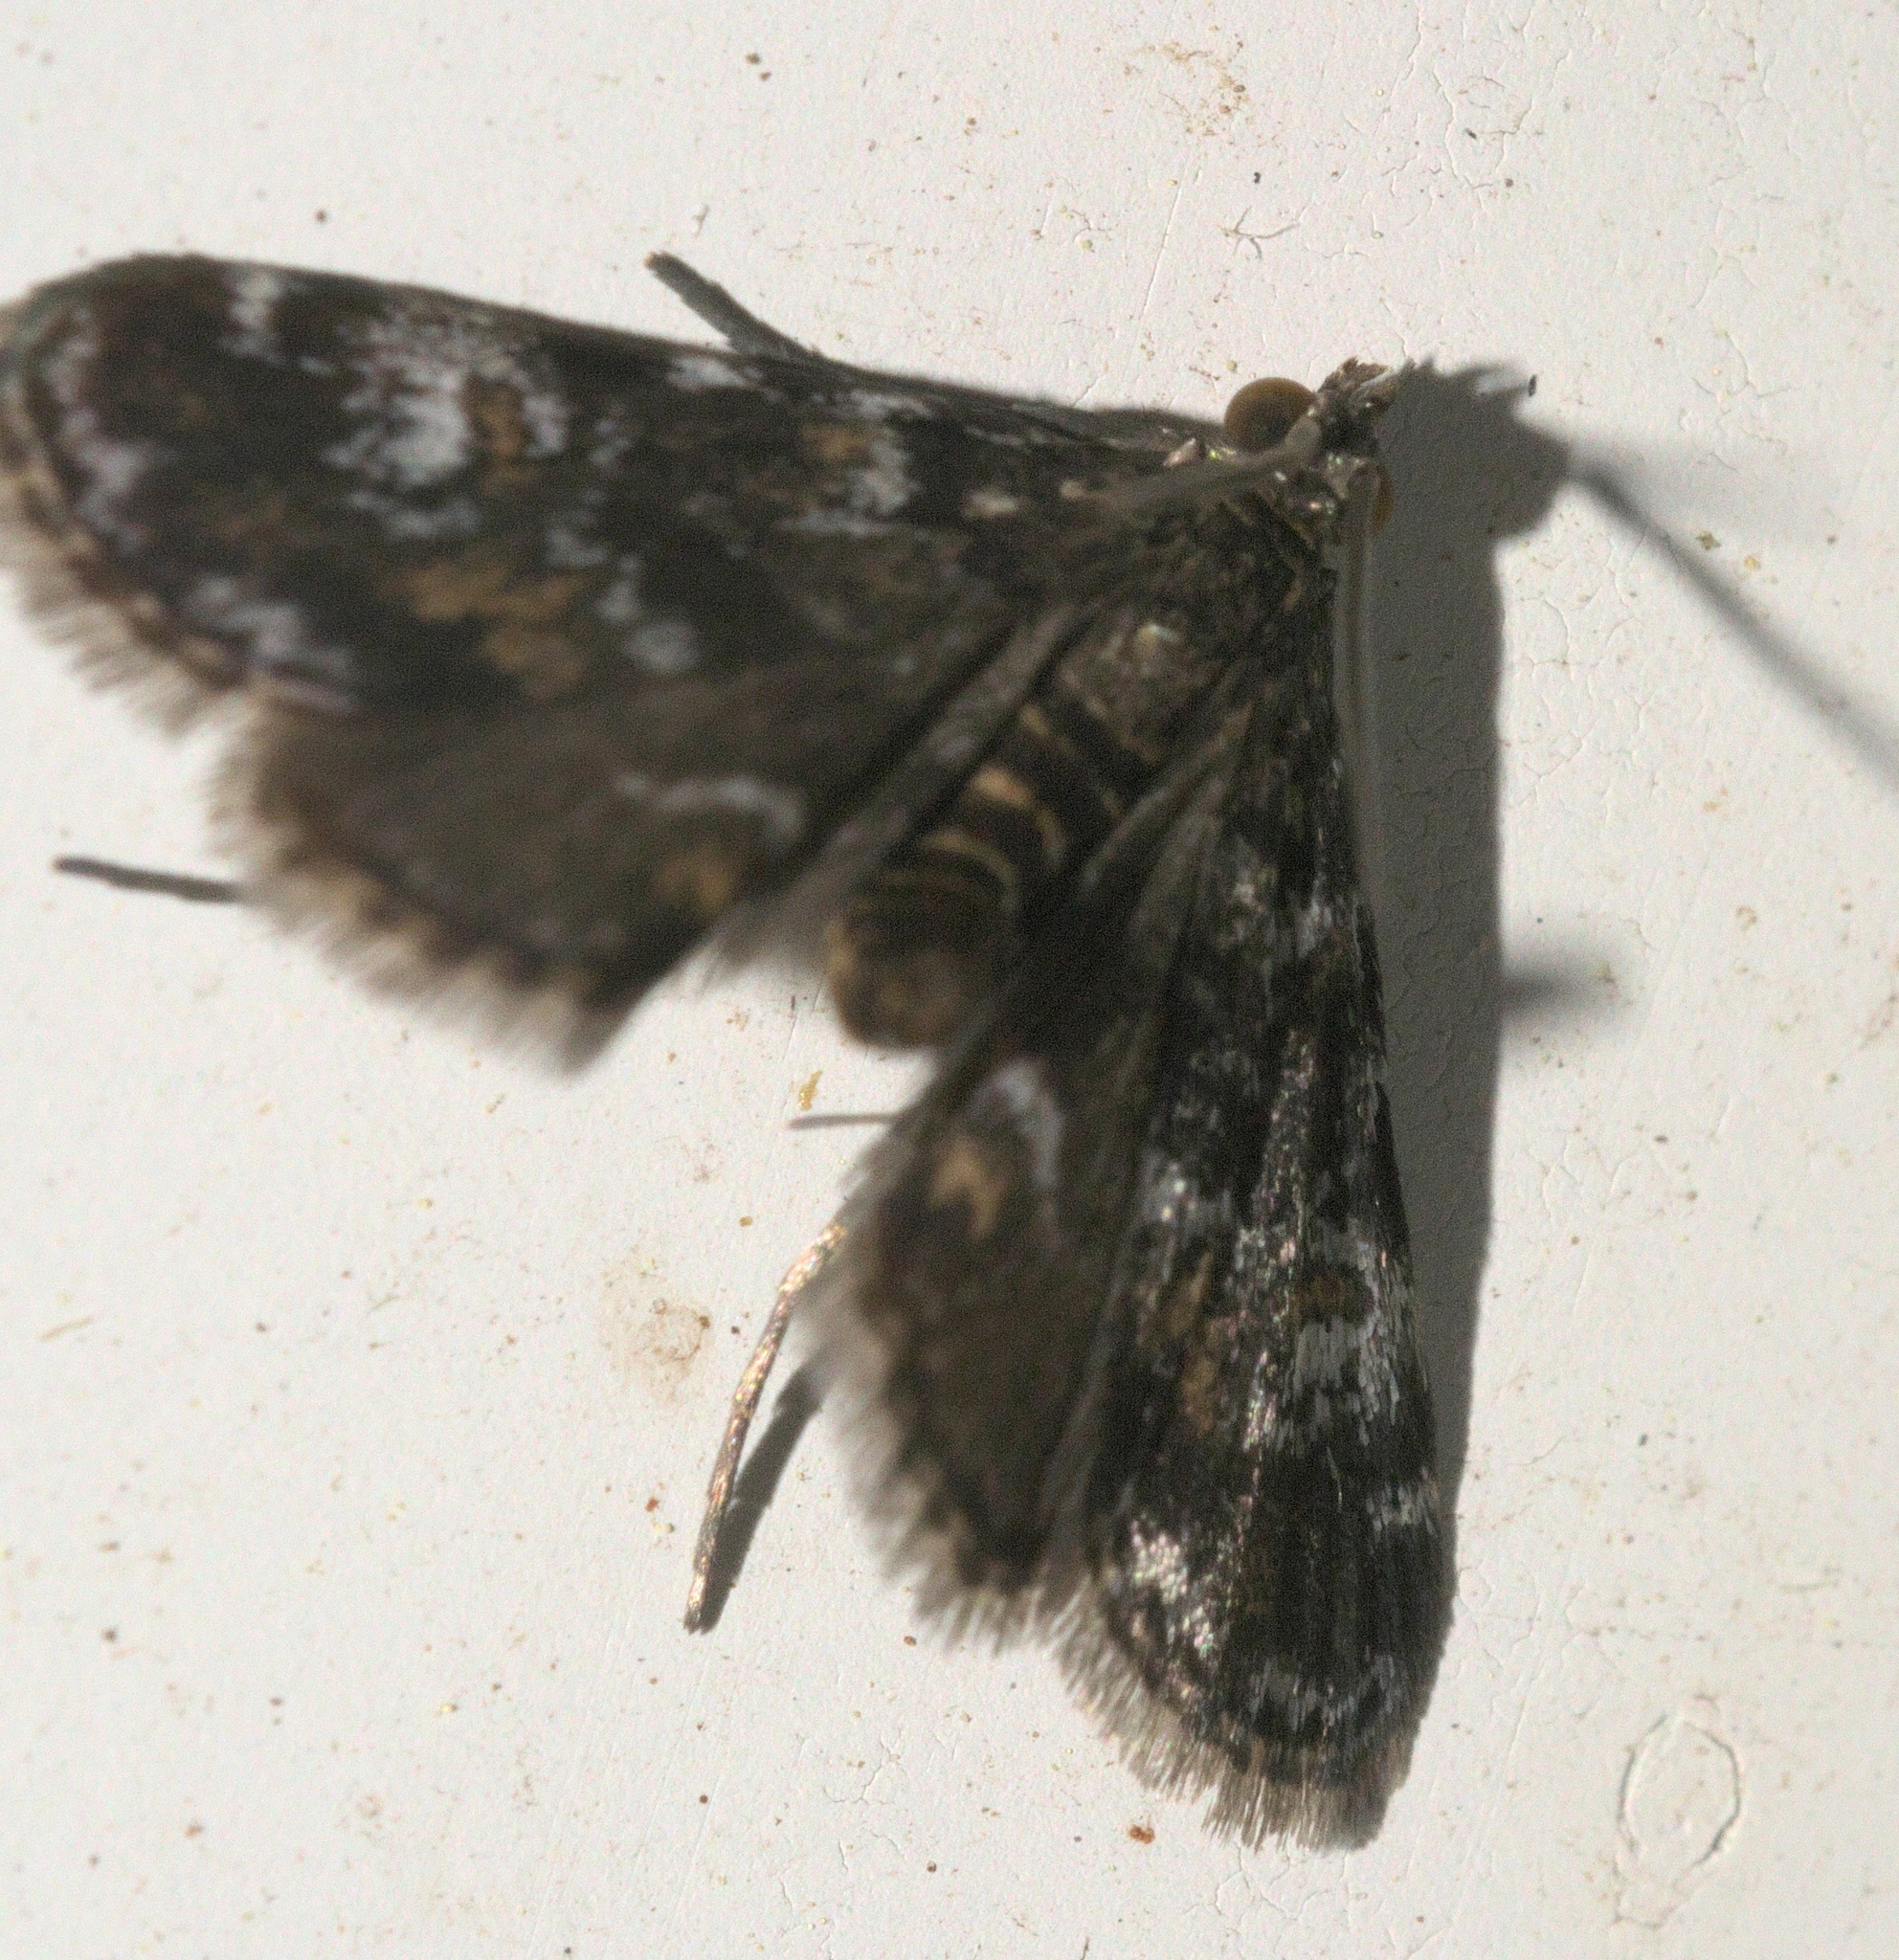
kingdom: Animalia
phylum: Arthropoda
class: Insecta
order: Lepidoptera
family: Crambidae
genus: Elophila
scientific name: Elophila obliteralis
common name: Waterlily leafcutter moth
